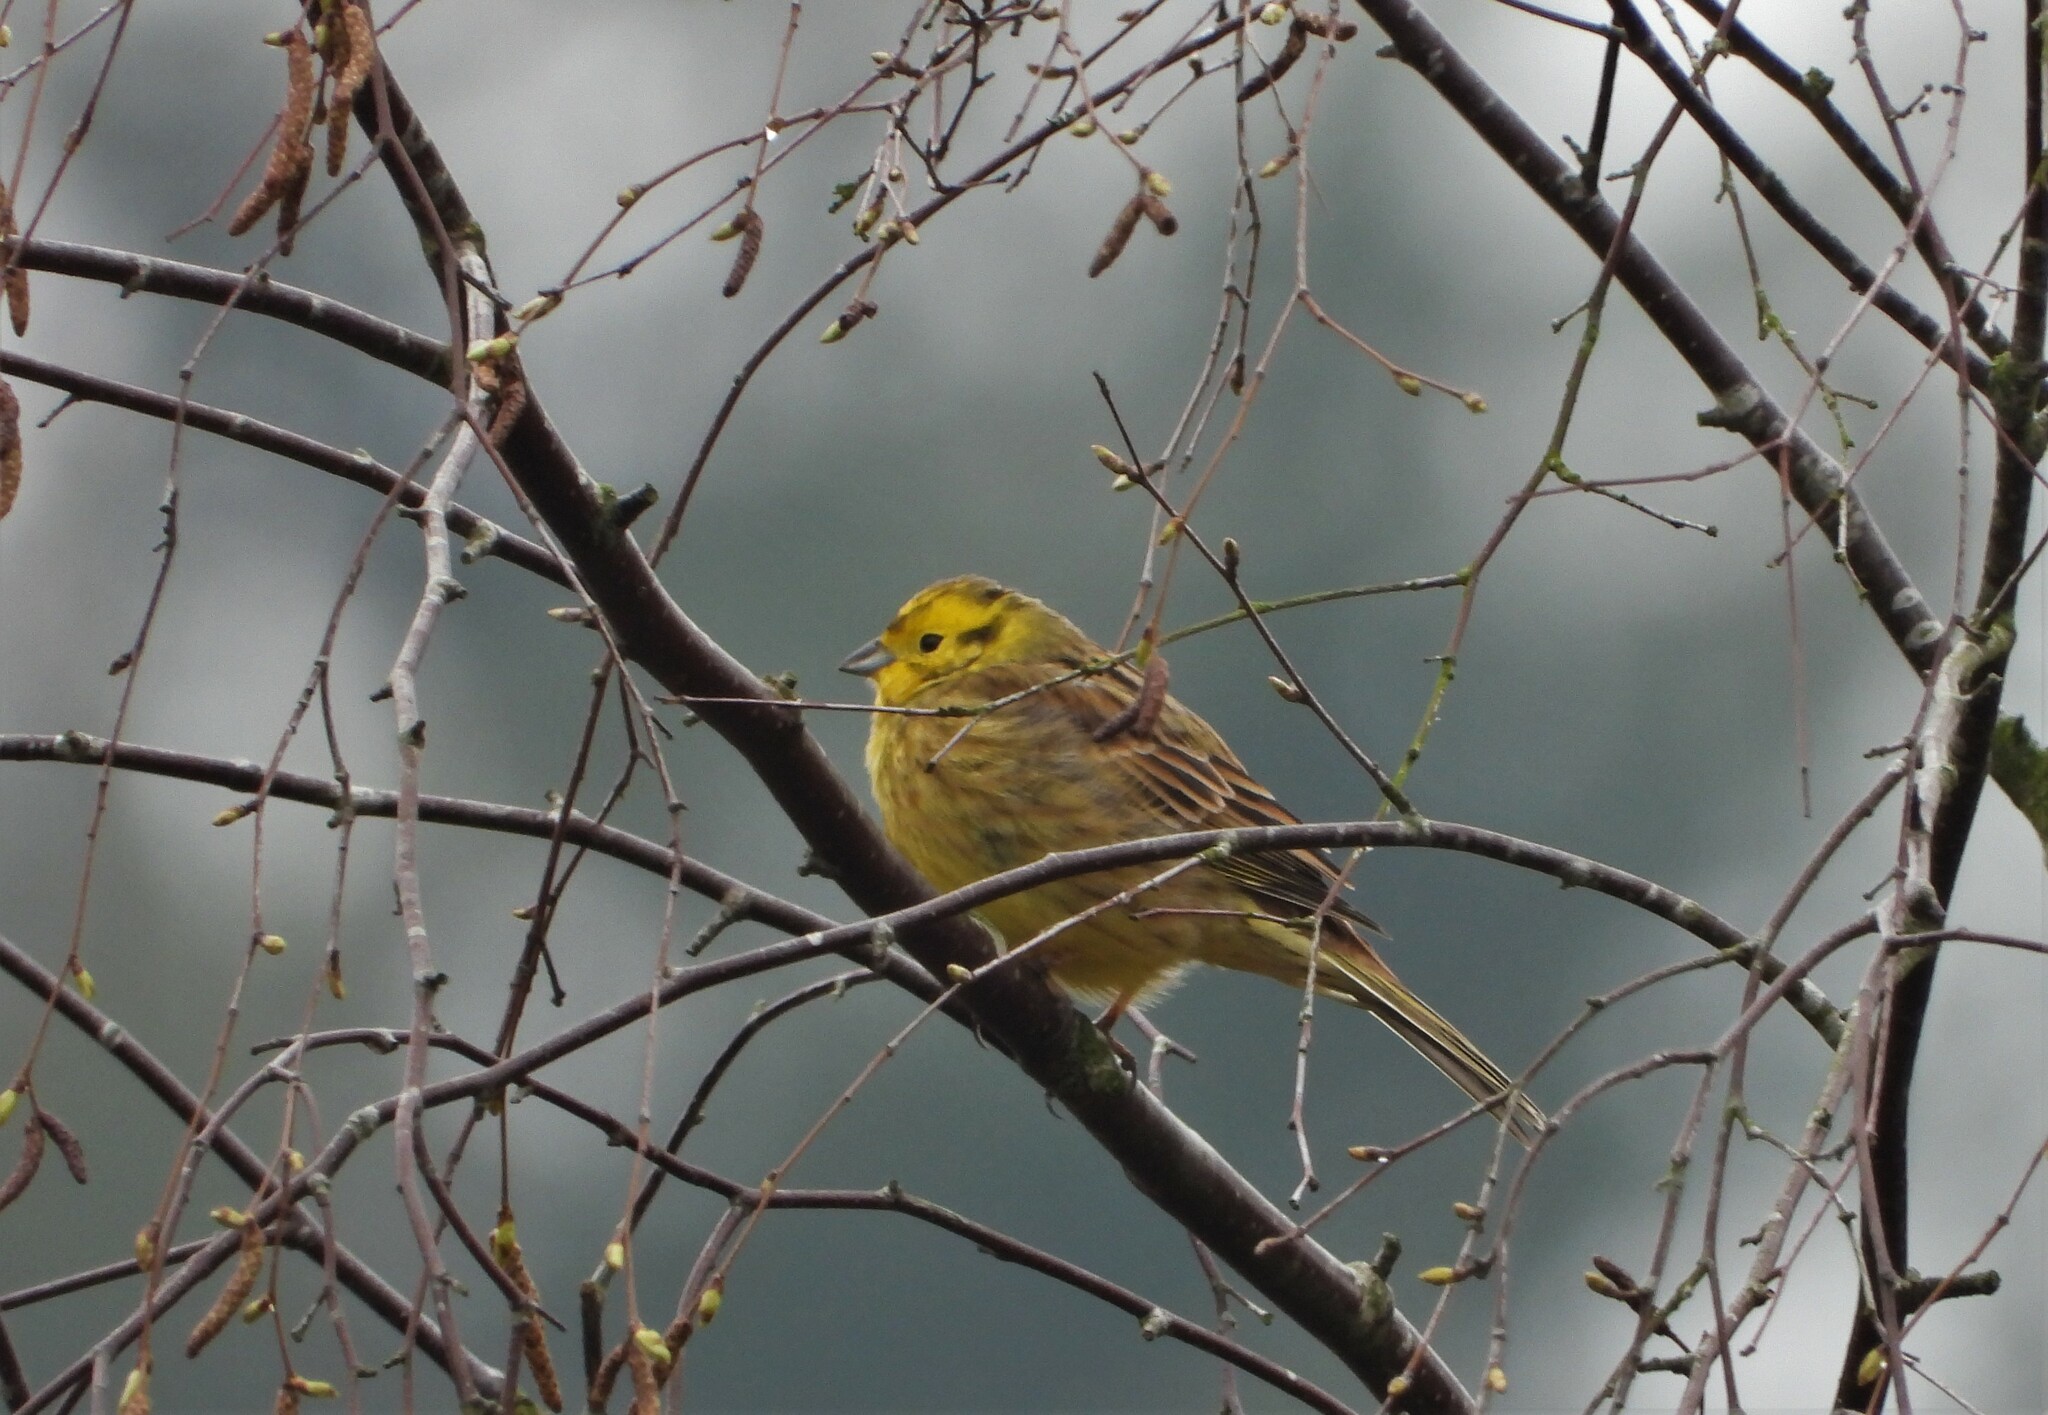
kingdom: Animalia
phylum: Chordata
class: Aves
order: Passeriformes
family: Emberizidae
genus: Emberiza
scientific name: Emberiza citrinella
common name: Yellowhammer
